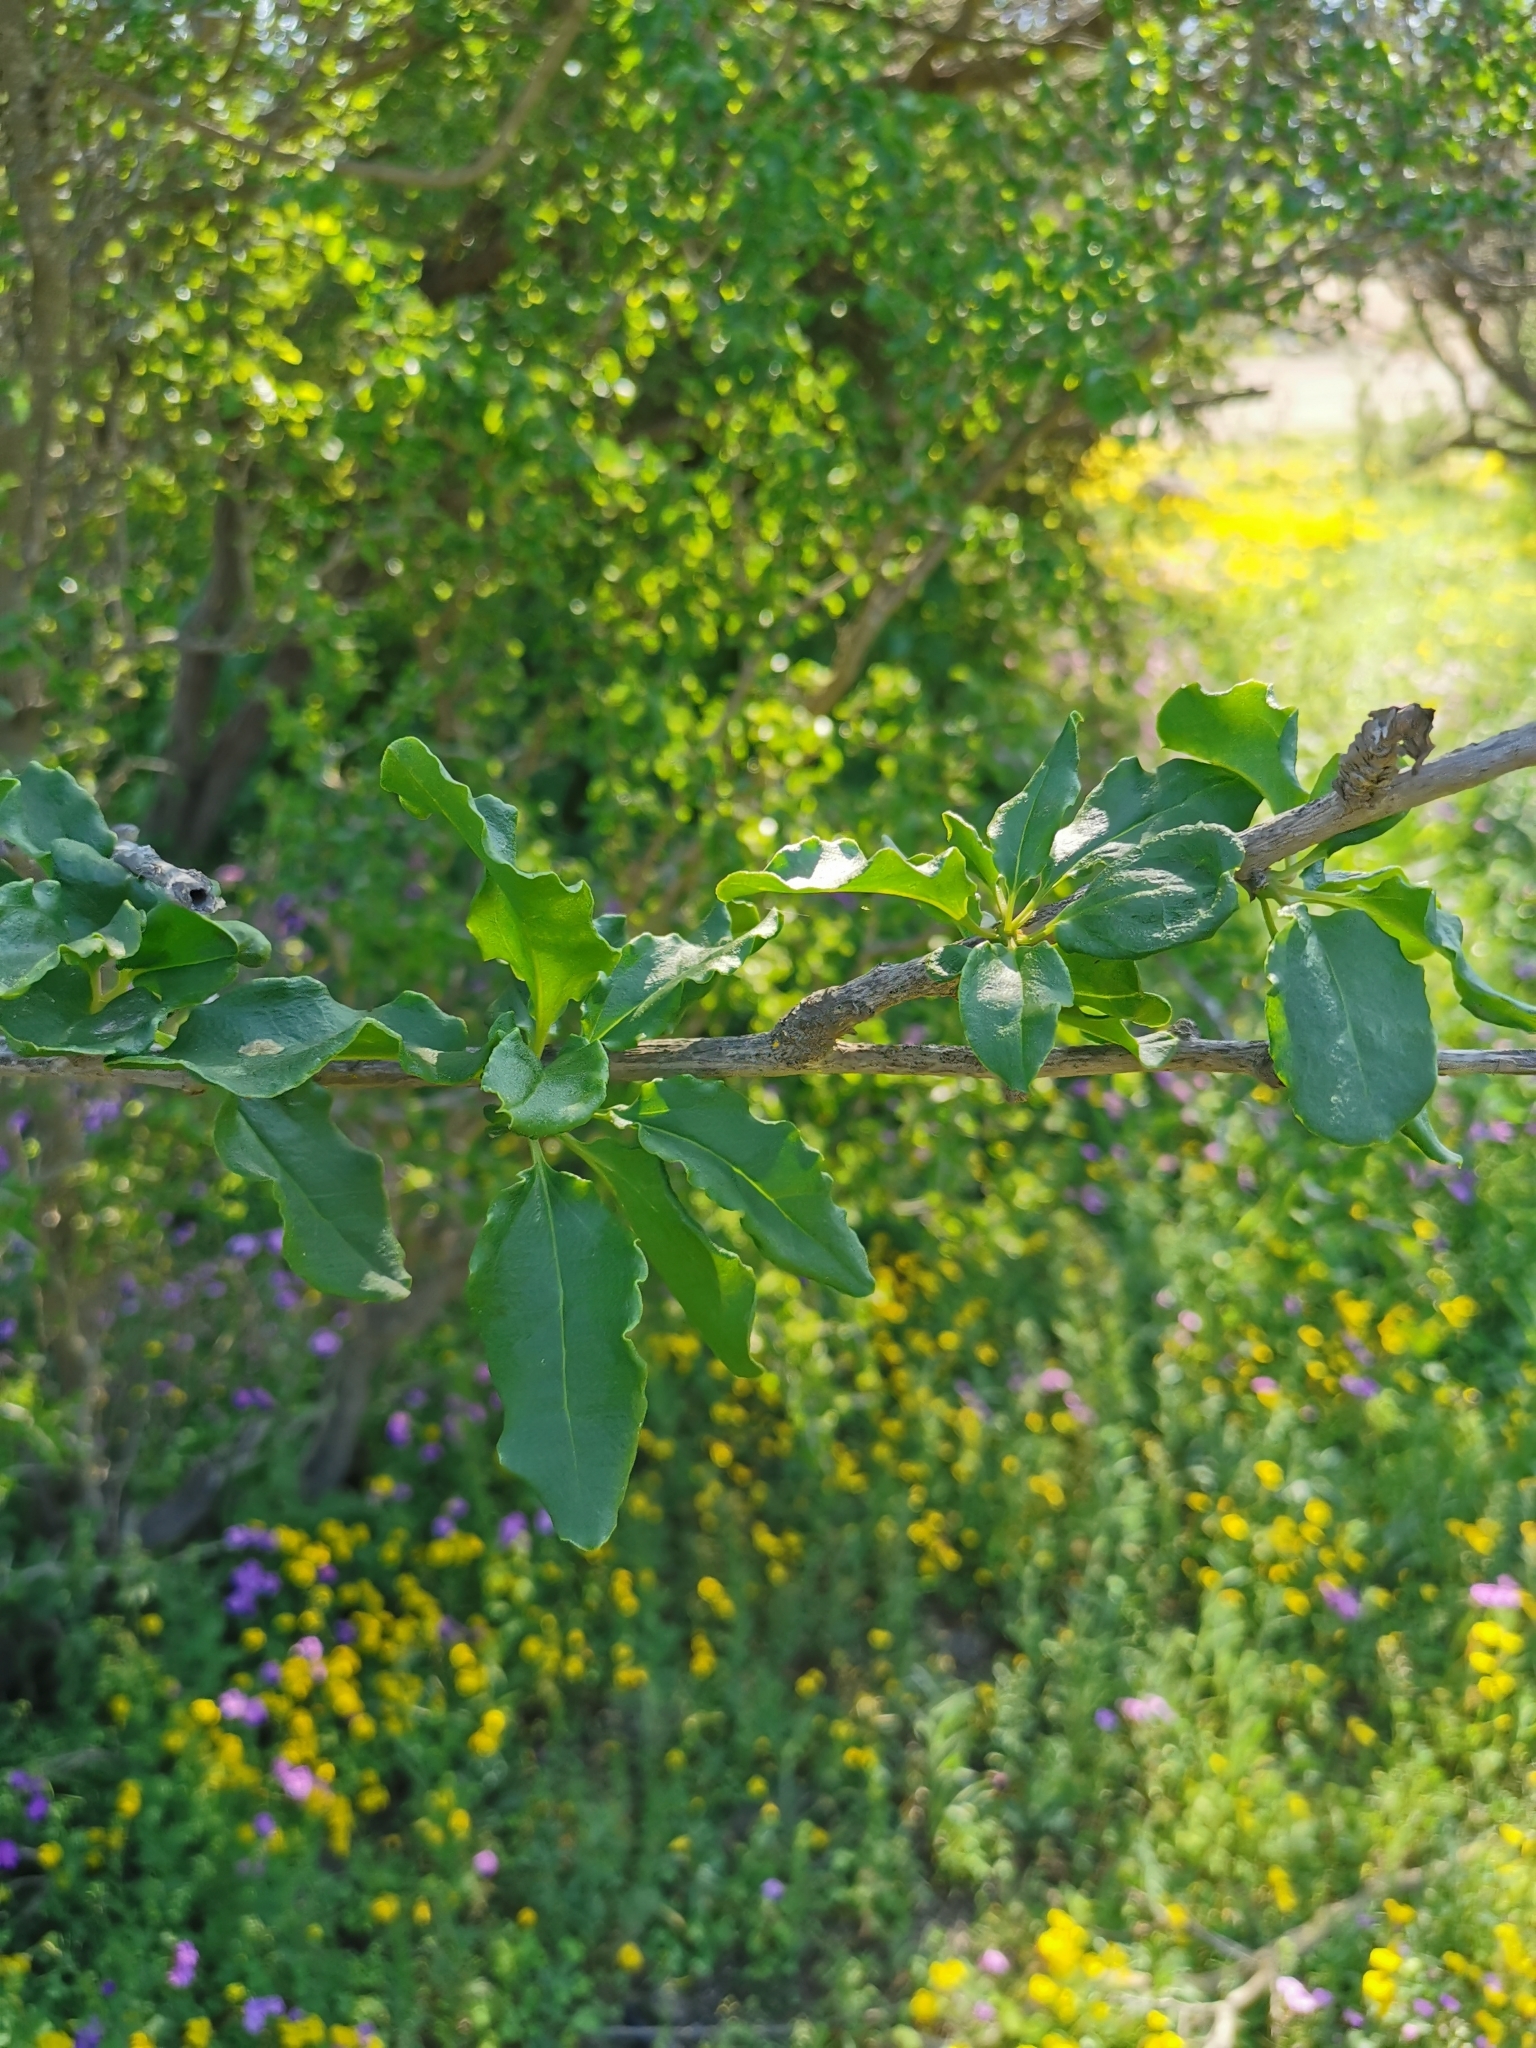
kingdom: Plantae
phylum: Tracheophyta
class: Magnoliopsida
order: Caryophyllales
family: Phytolaccaceae
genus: Anisomeria
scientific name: Anisomeria littoralis
